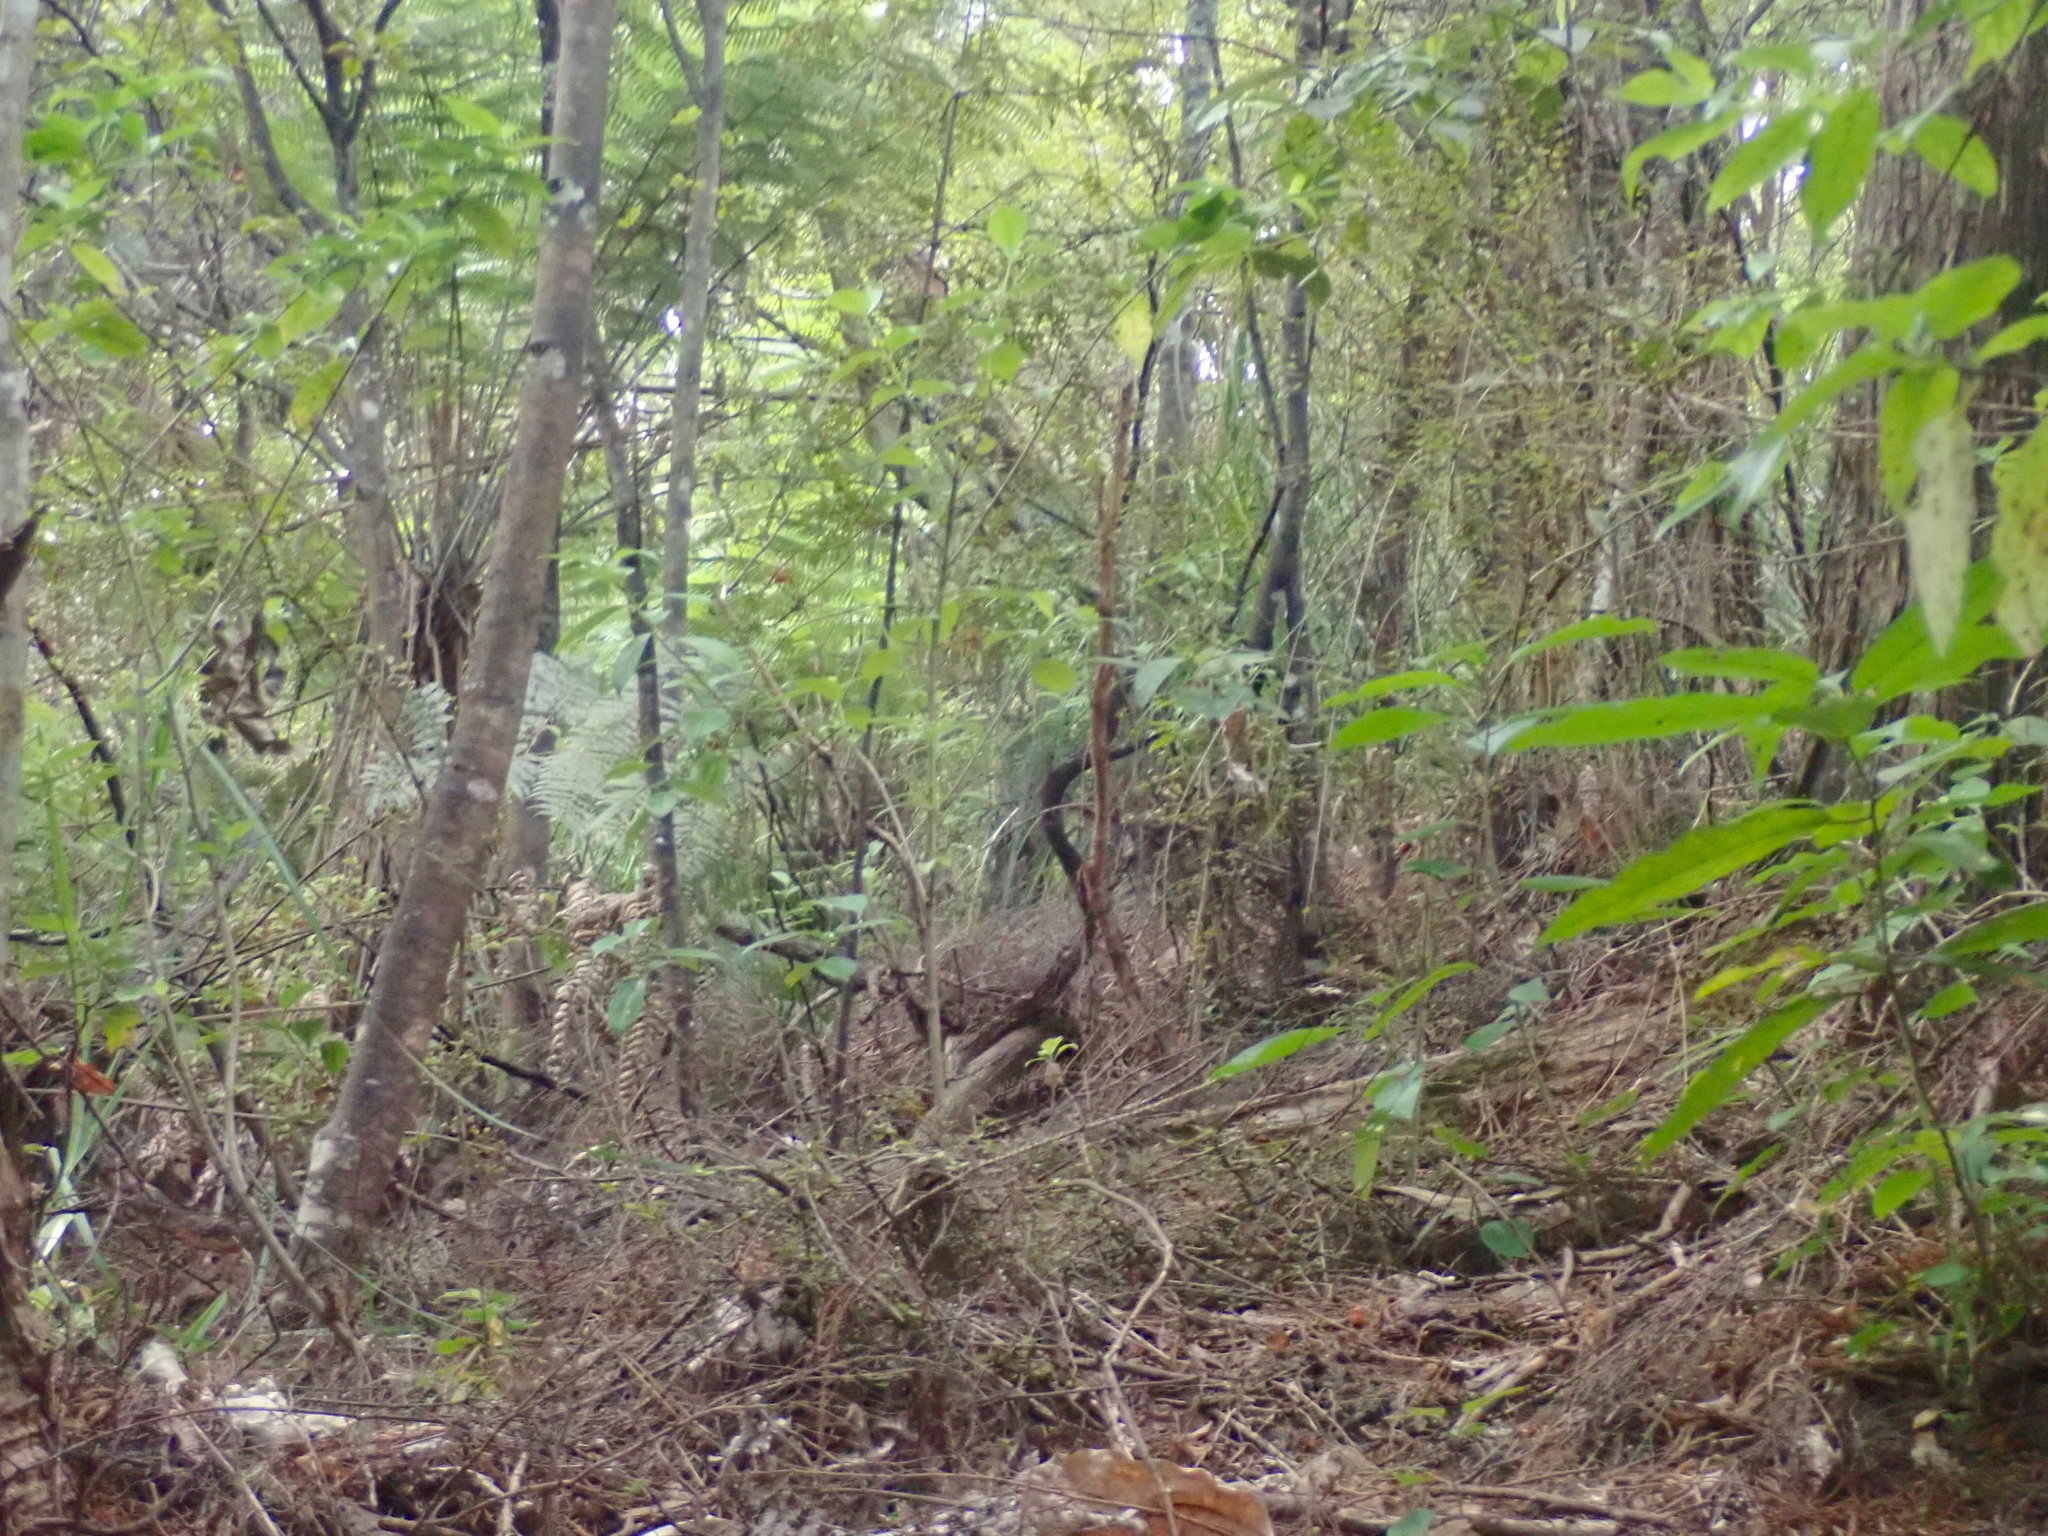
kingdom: Plantae
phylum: Tracheophyta
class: Magnoliopsida
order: Malpighiales
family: Violaceae
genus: Melicytus
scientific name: Melicytus ramiflorus
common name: Mahoe
